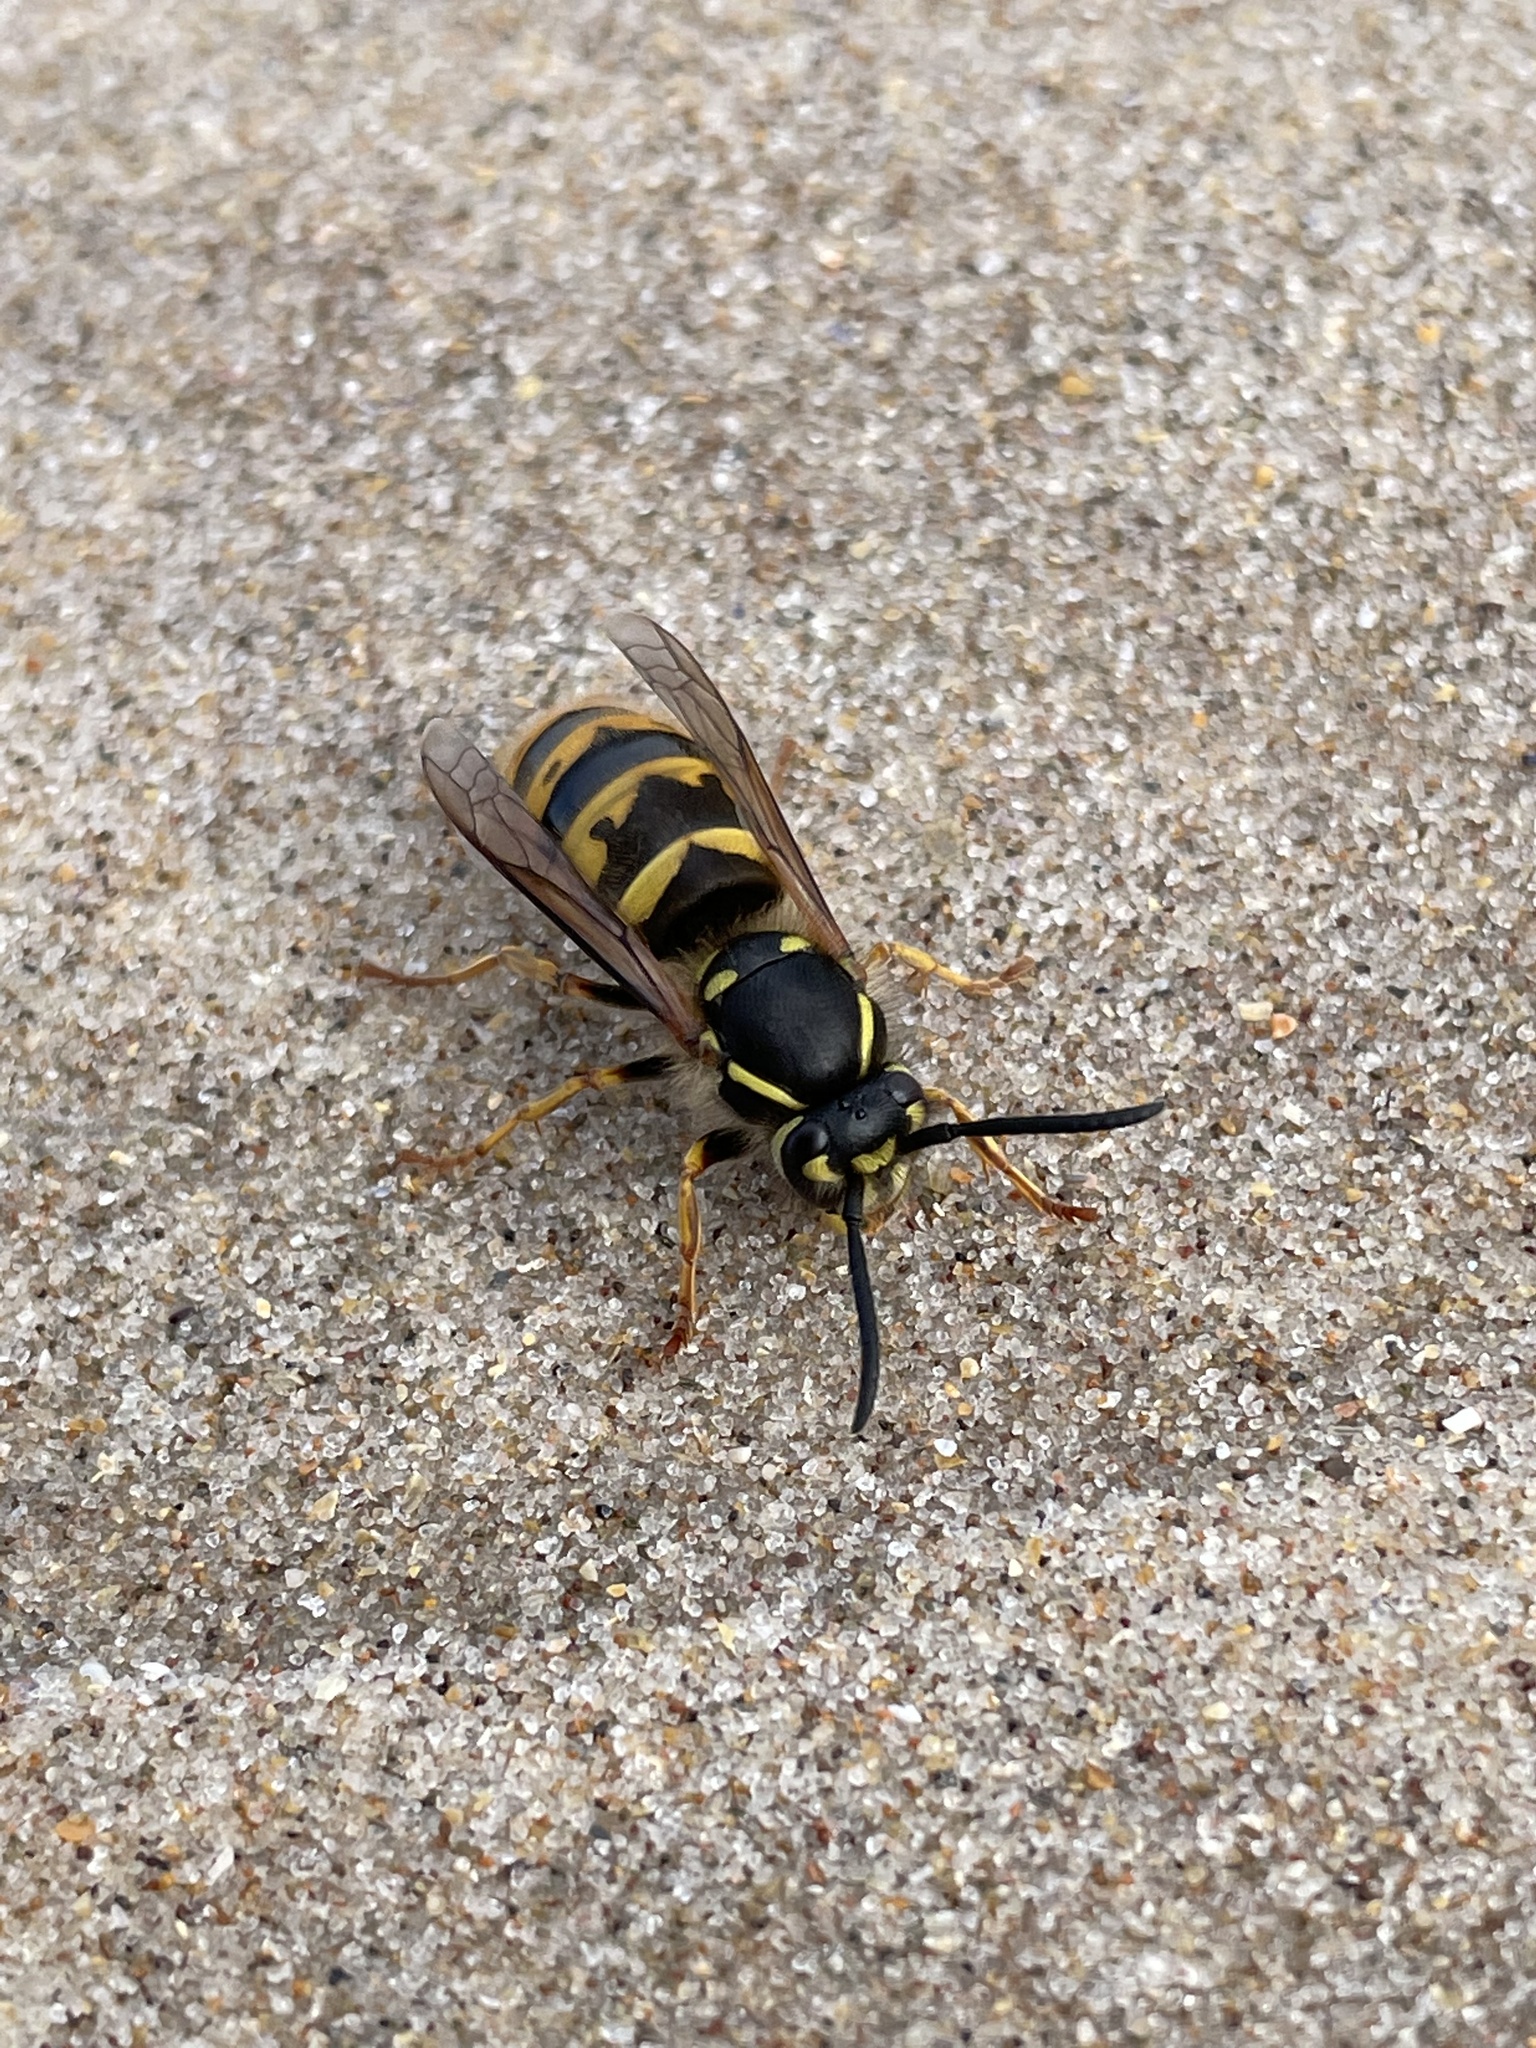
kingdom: Animalia
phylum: Arthropoda
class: Insecta
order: Hymenoptera
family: Vespidae
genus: Vespula
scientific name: Vespula vulgaris
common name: Common wasp
